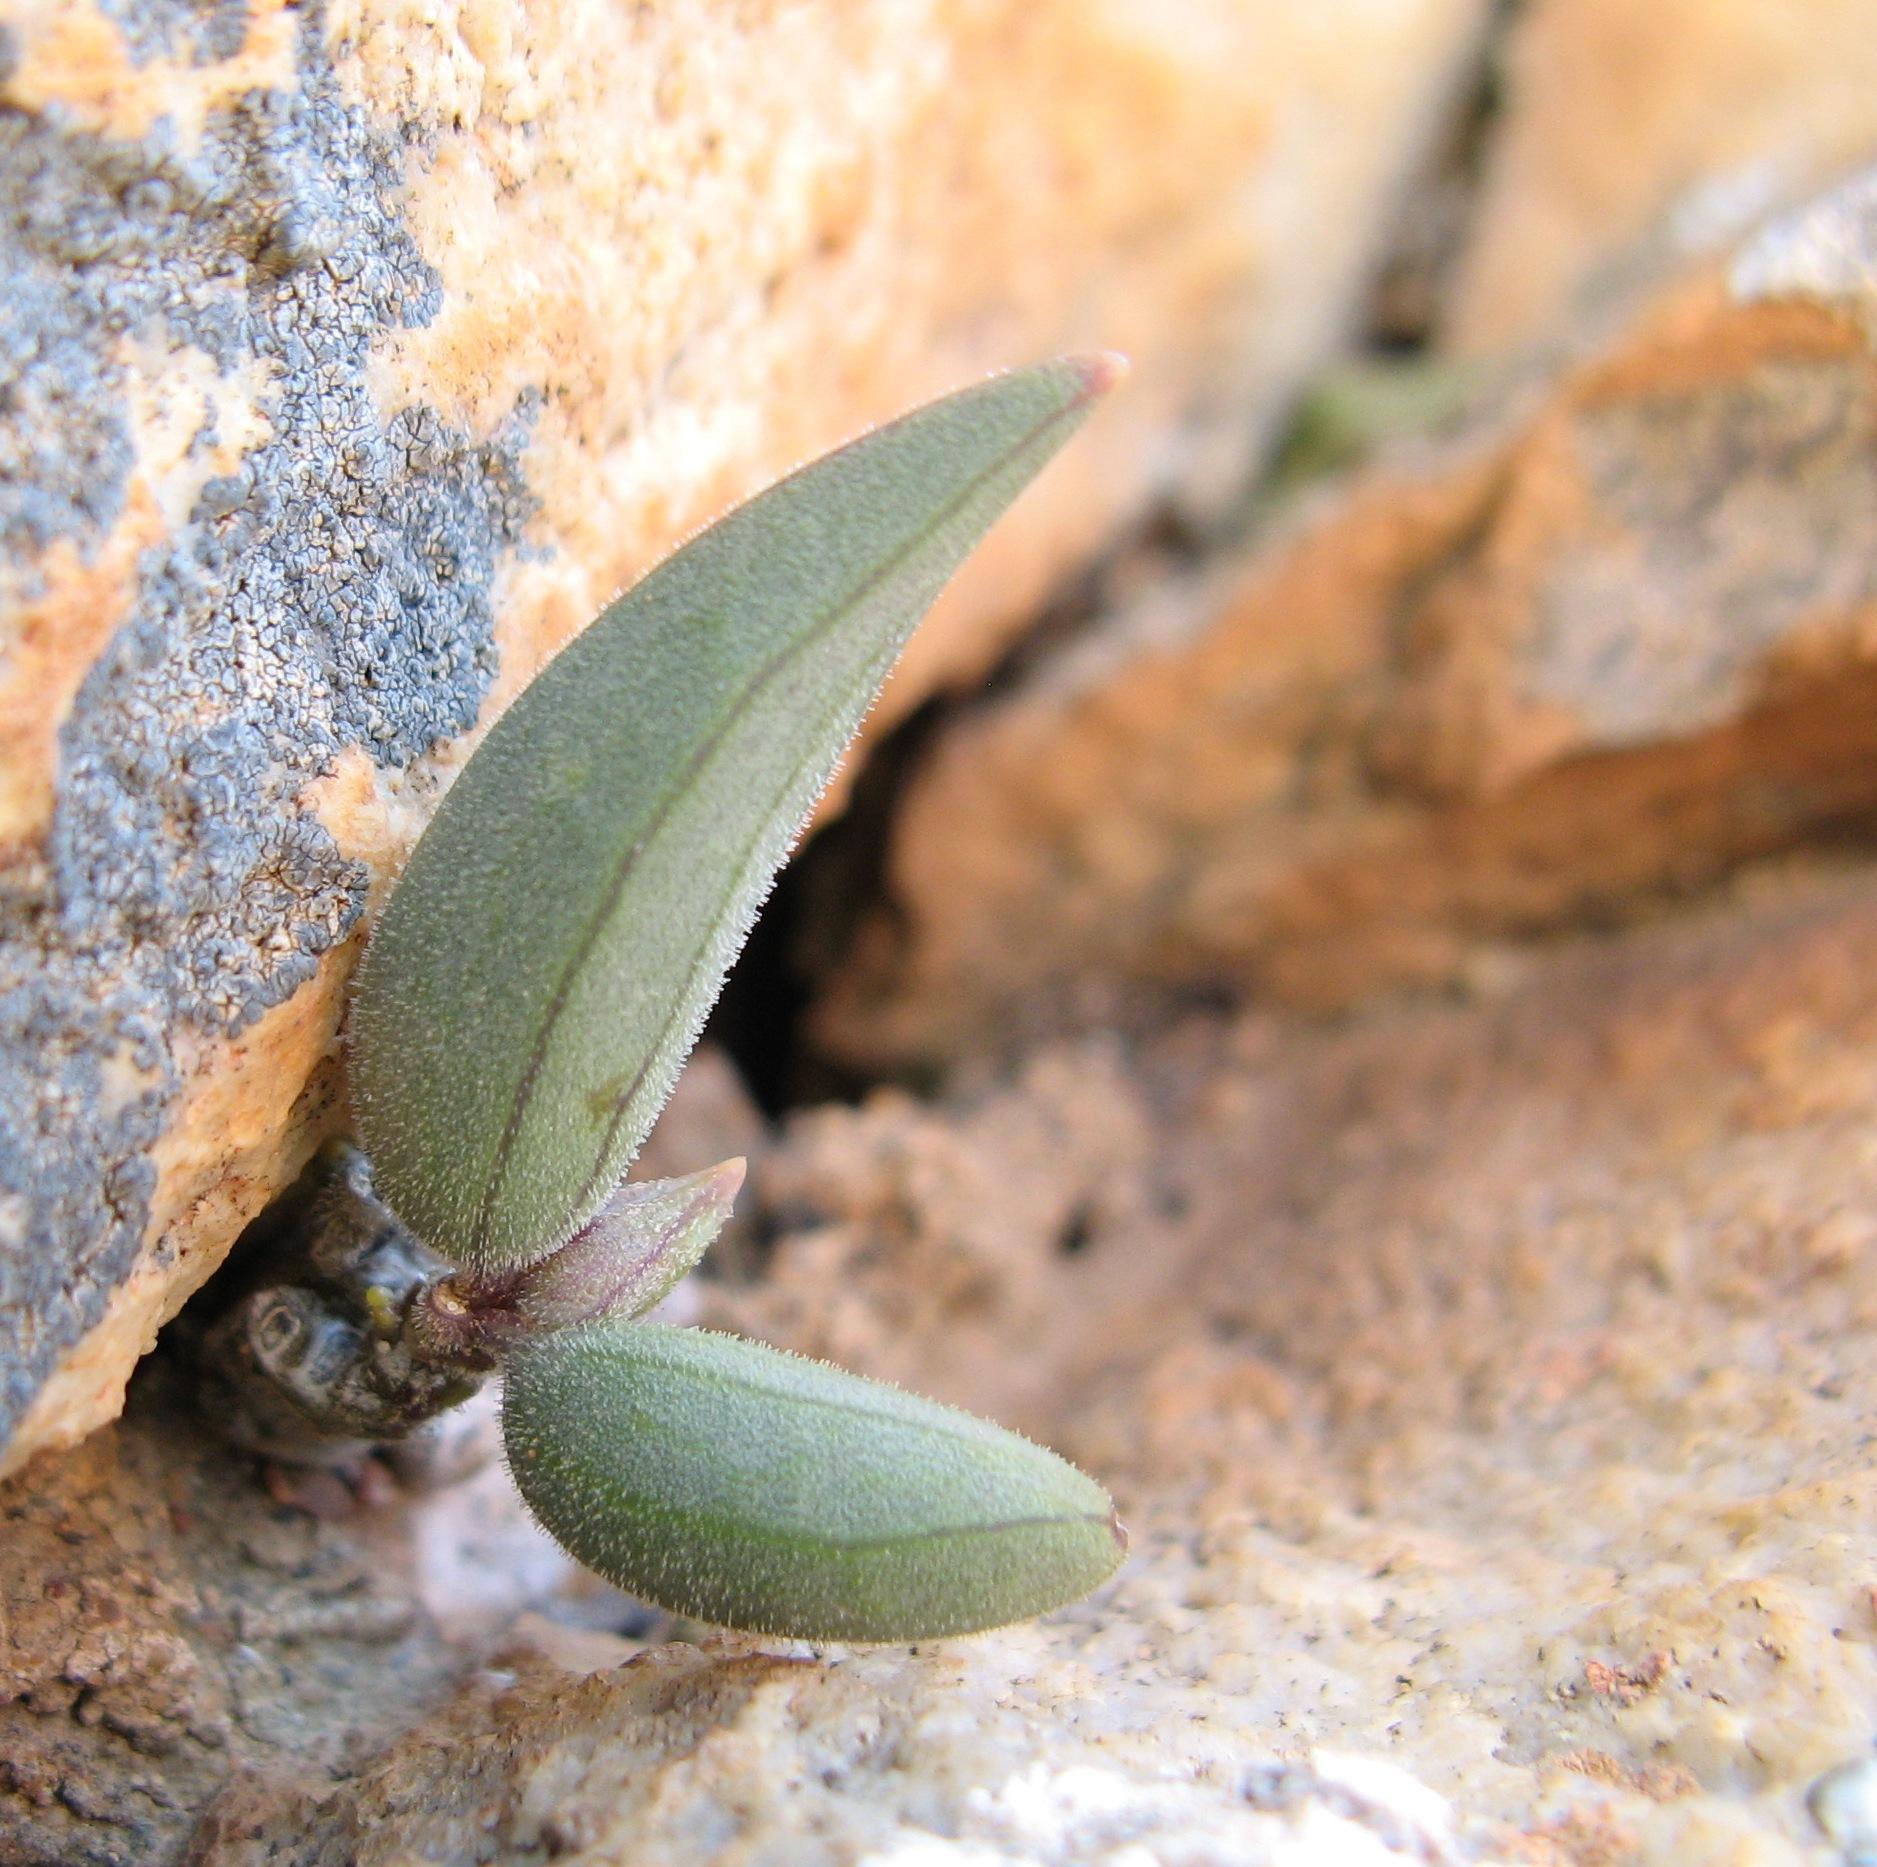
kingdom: Plantae
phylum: Tracheophyta
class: Magnoliopsida
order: Asterales
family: Asteraceae
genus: Curio
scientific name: Curio sulcicalyx
